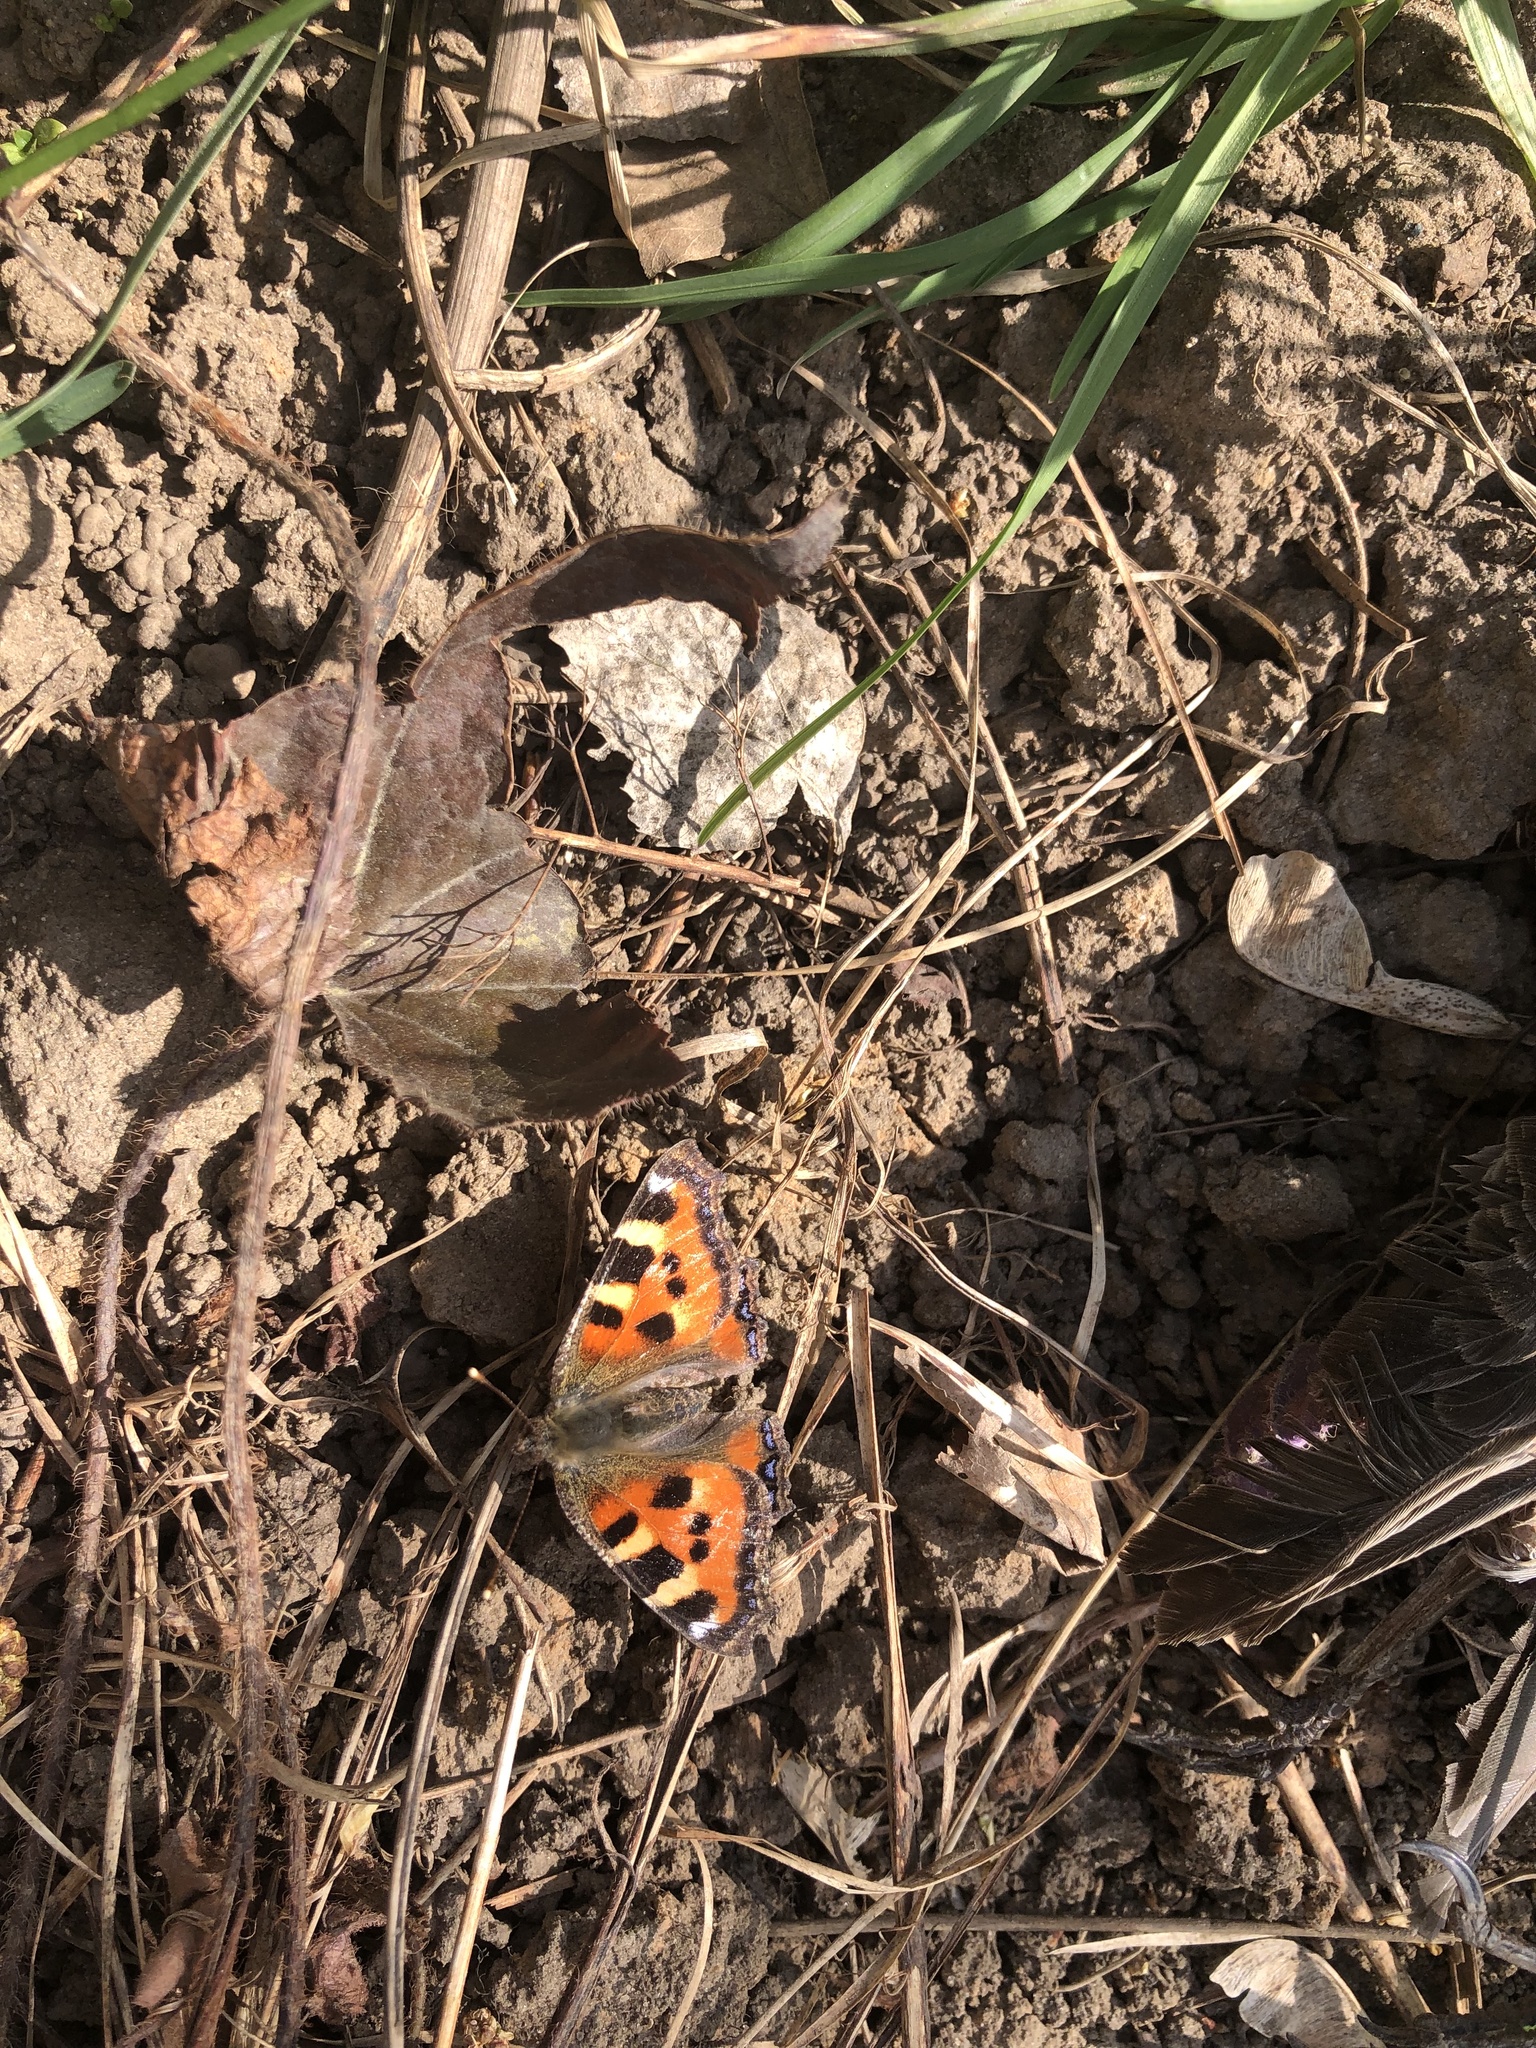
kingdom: Animalia
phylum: Arthropoda
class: Insecta
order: Lepidoptera
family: Nymphalidae
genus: Aglais
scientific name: Aglais urticae
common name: Small tortoiseshell
